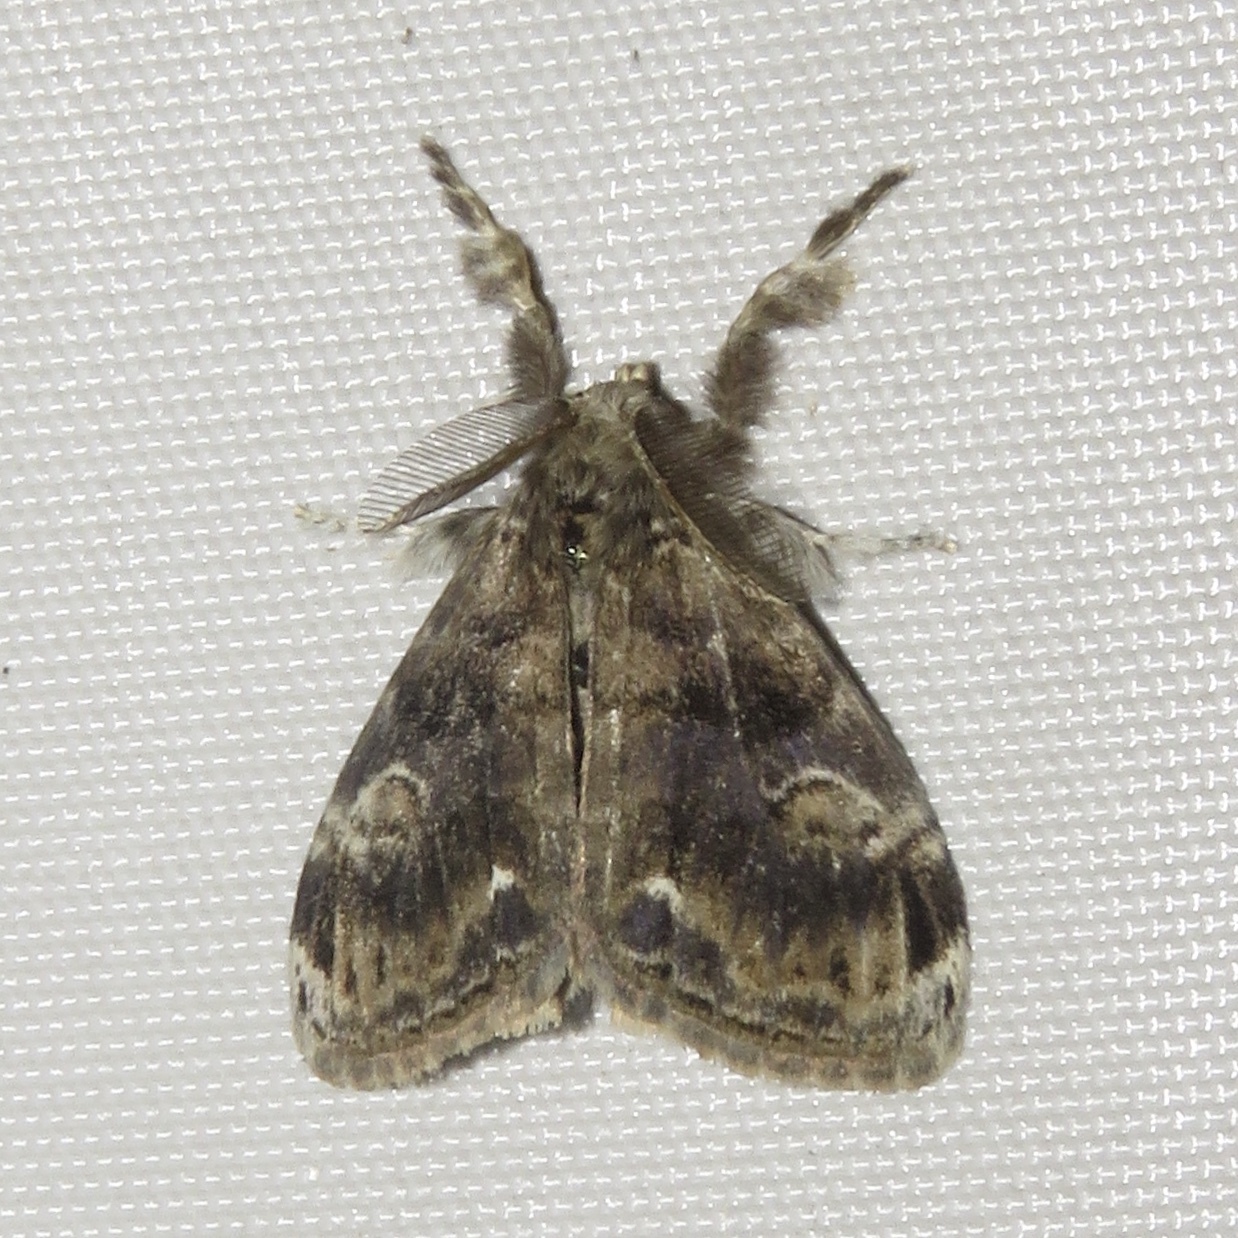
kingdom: Animalia
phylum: Arthropoda
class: Insecta
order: Lepidoptera
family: Erebidae
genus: Orgyia
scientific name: Orgyia definita
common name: Definite tussock moth
